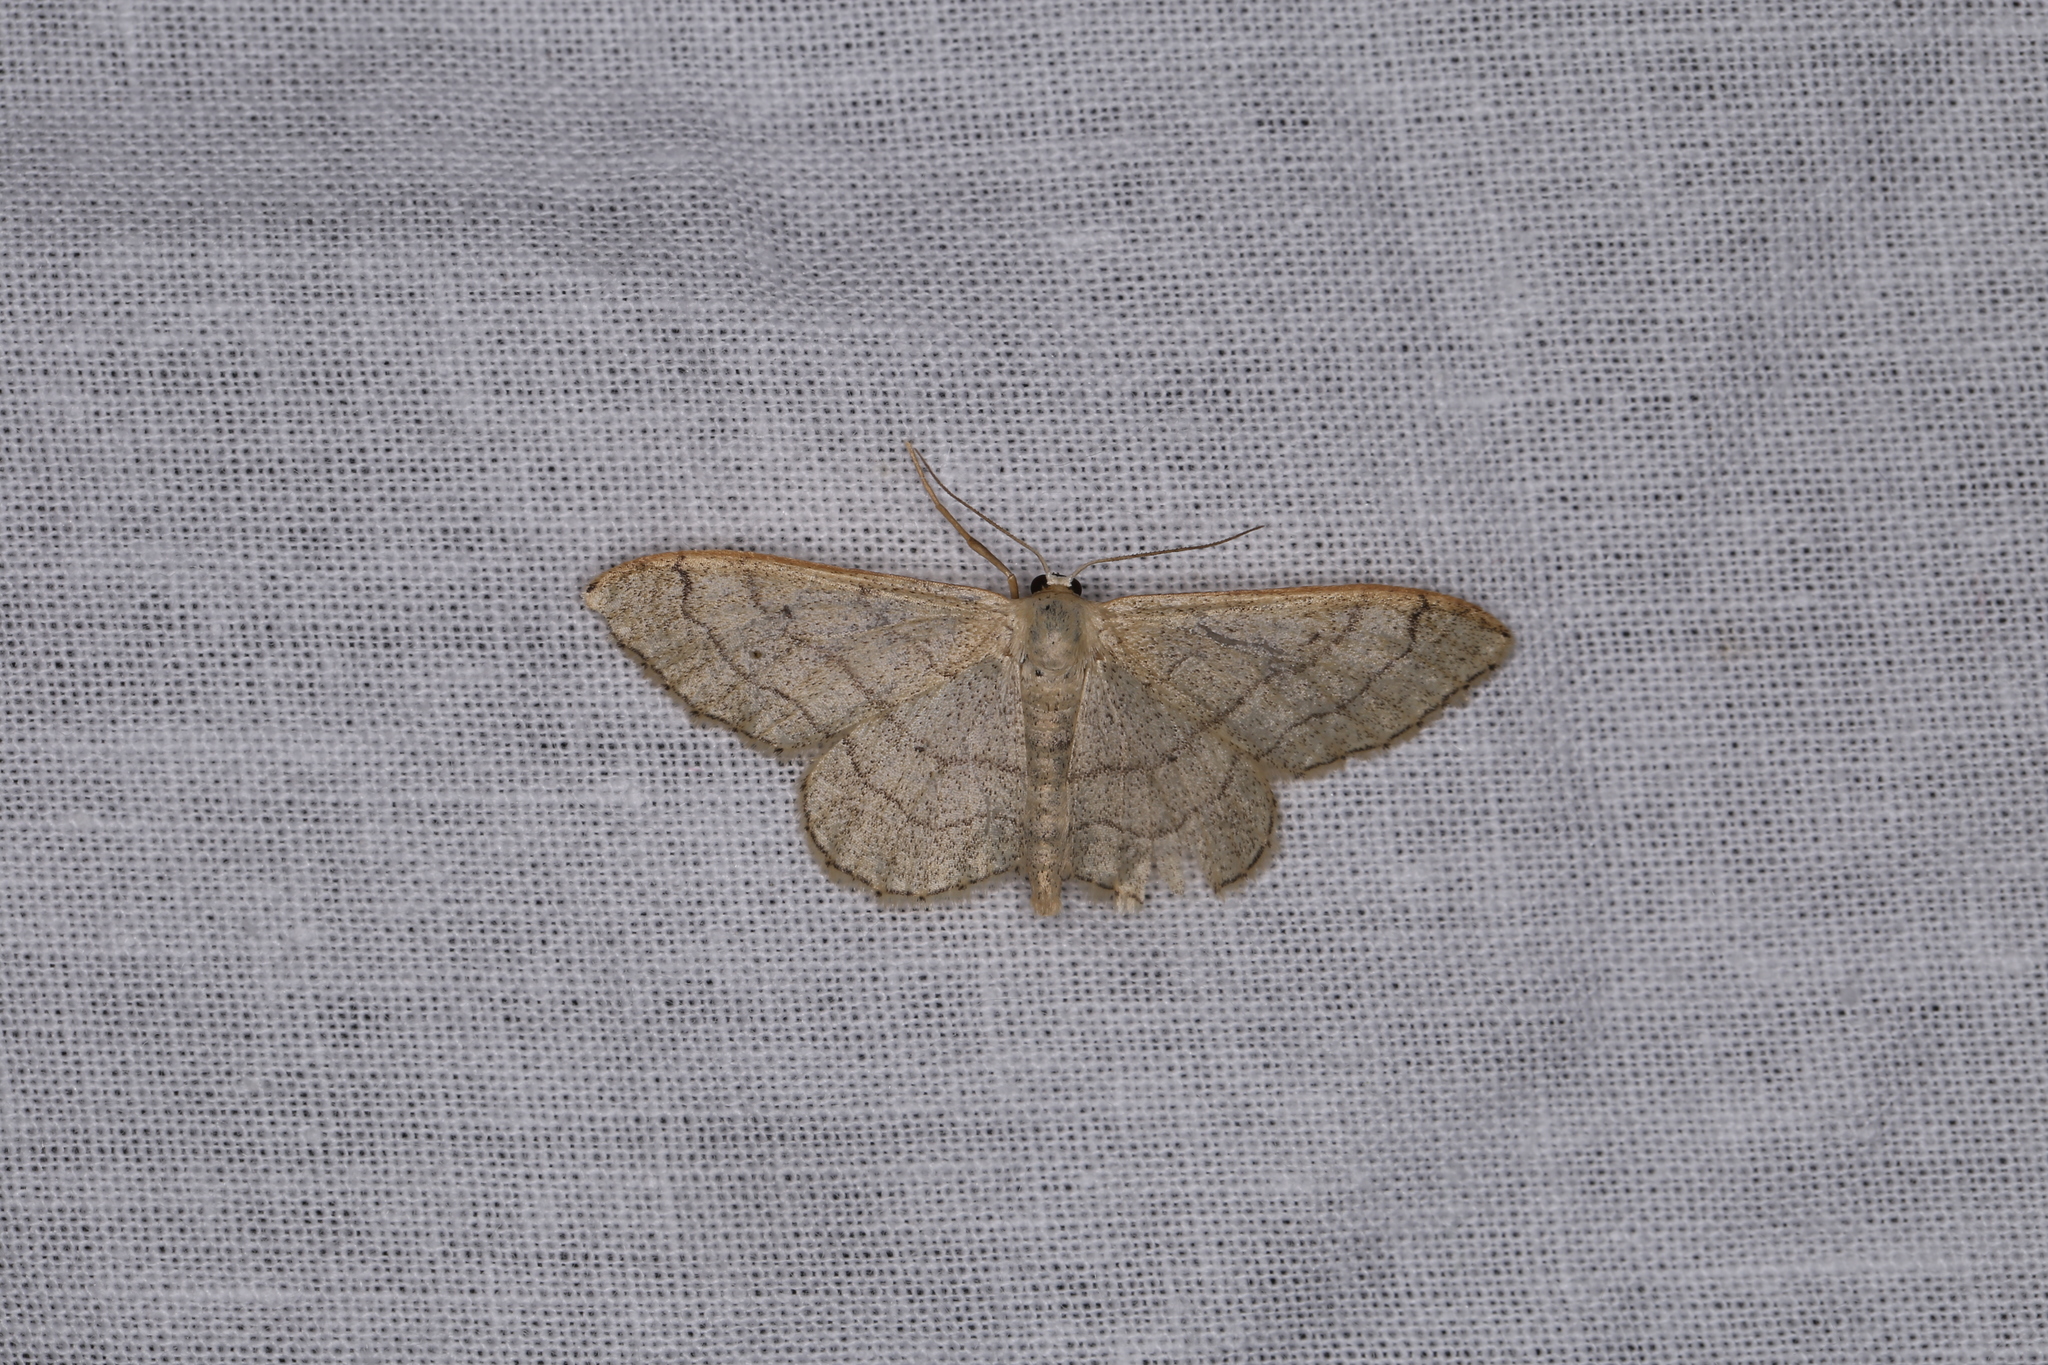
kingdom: Animalia
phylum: Arthropoda
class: Insecta
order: Lepidoptera
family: Geometridae
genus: Idaea
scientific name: Idaea aversata
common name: Riband wave
